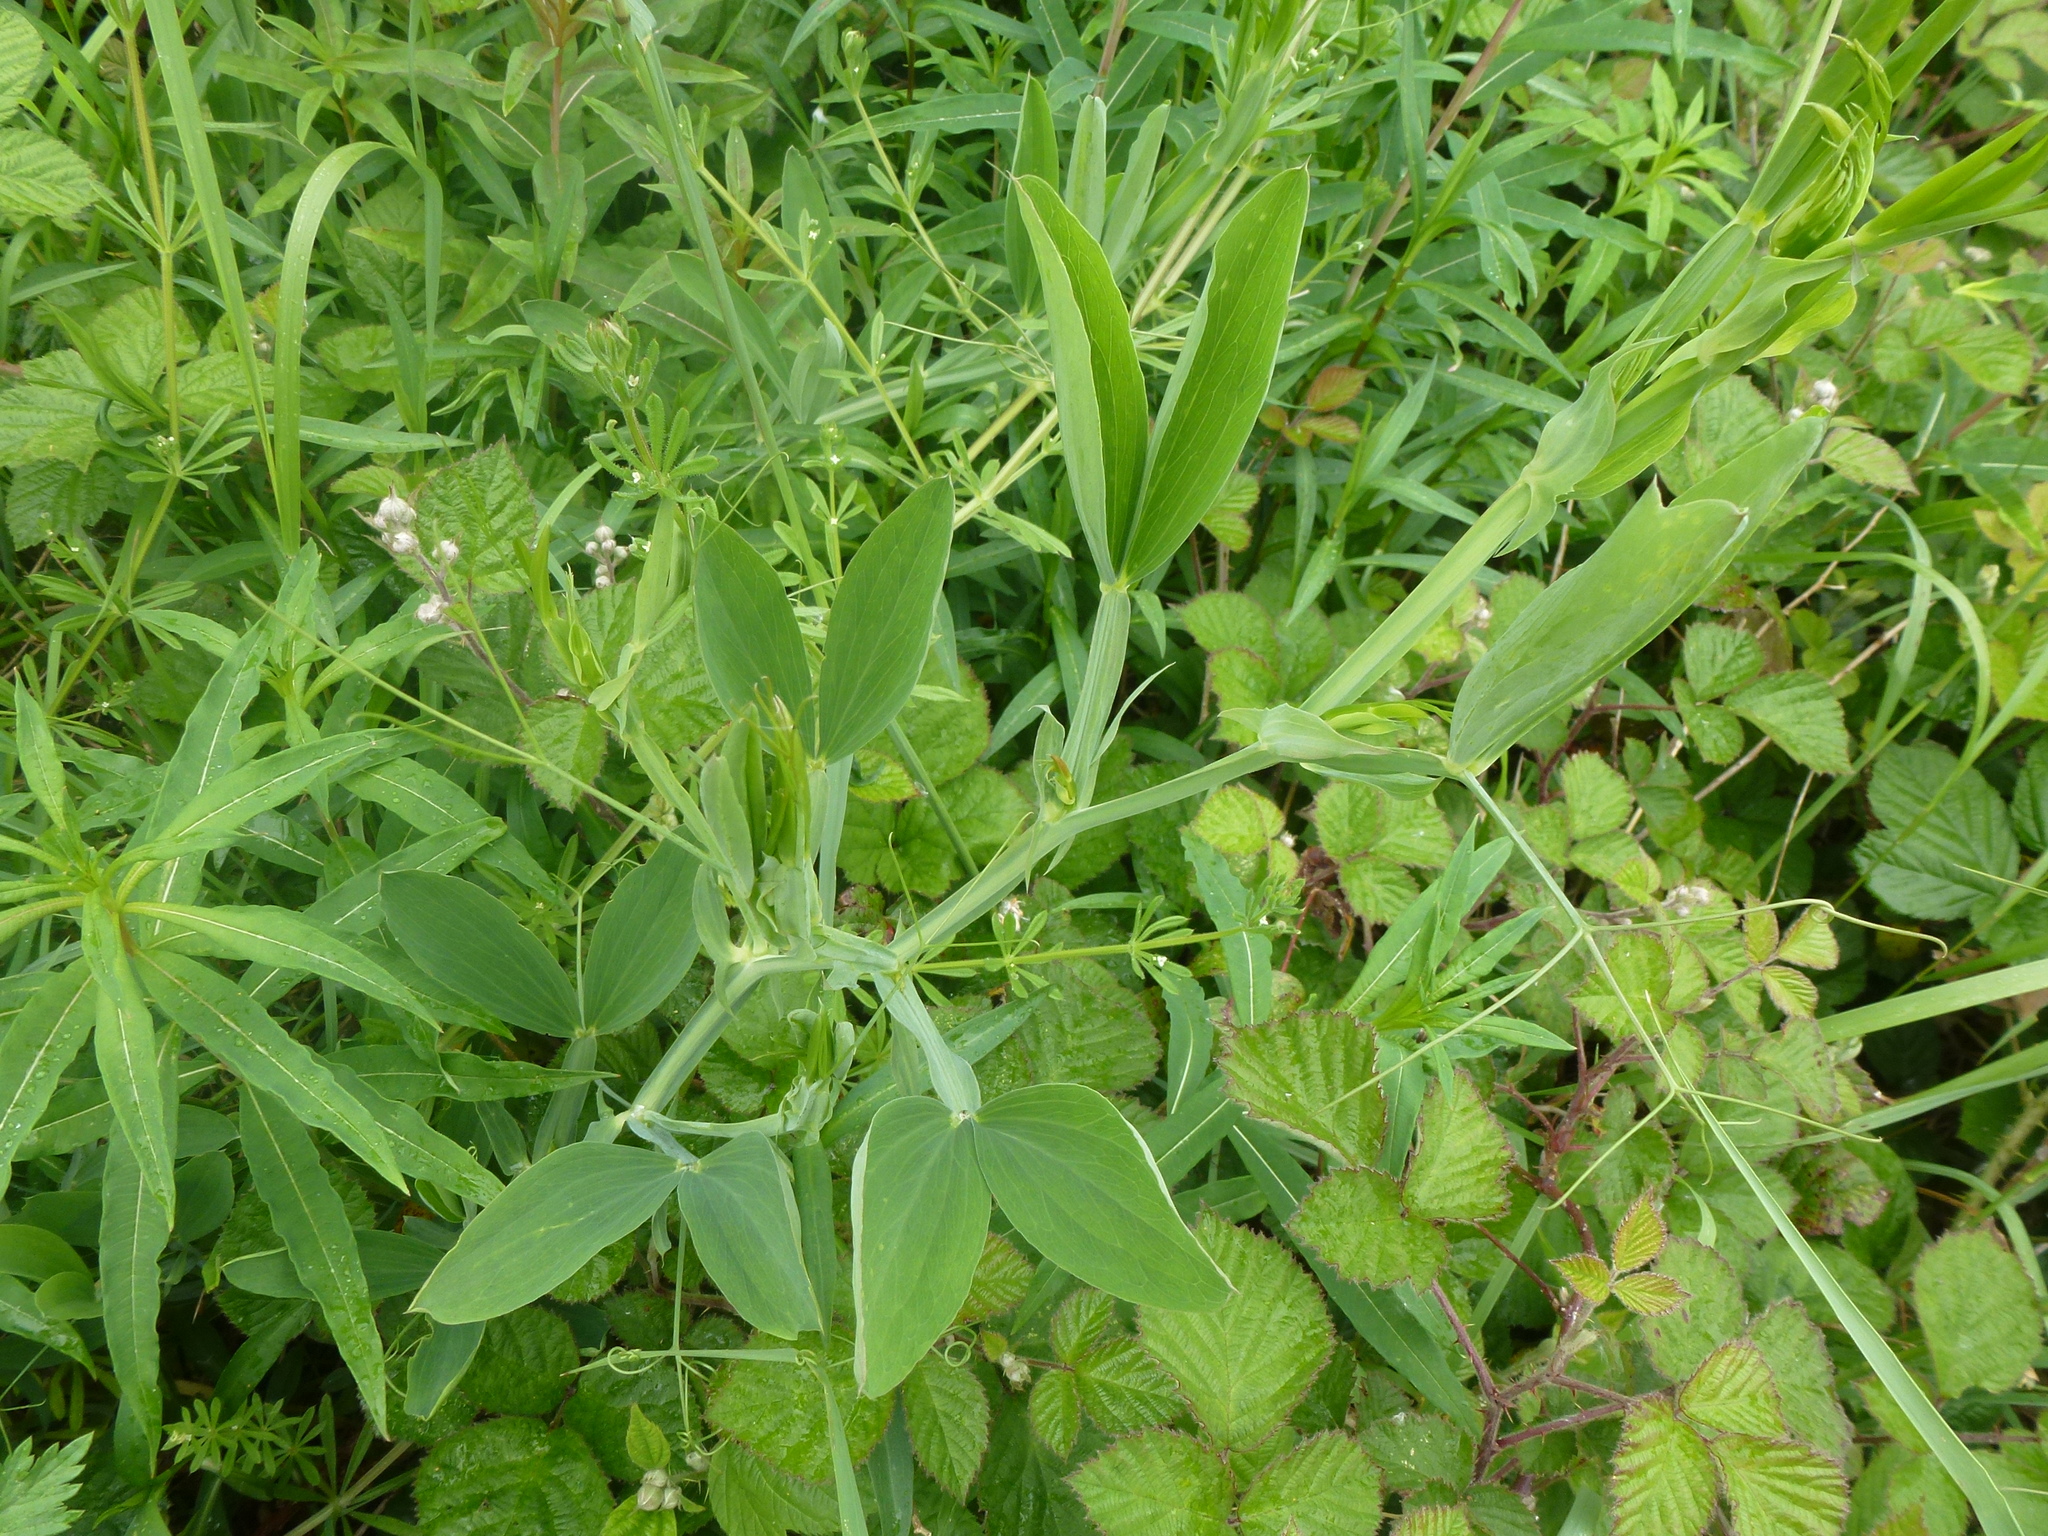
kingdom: Plantae
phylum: Tracheophyta
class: Magnoliopsida
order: Fabales
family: Fabaceae
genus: Lathyrus
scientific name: Lathyrus latifolius
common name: Perennial pea
